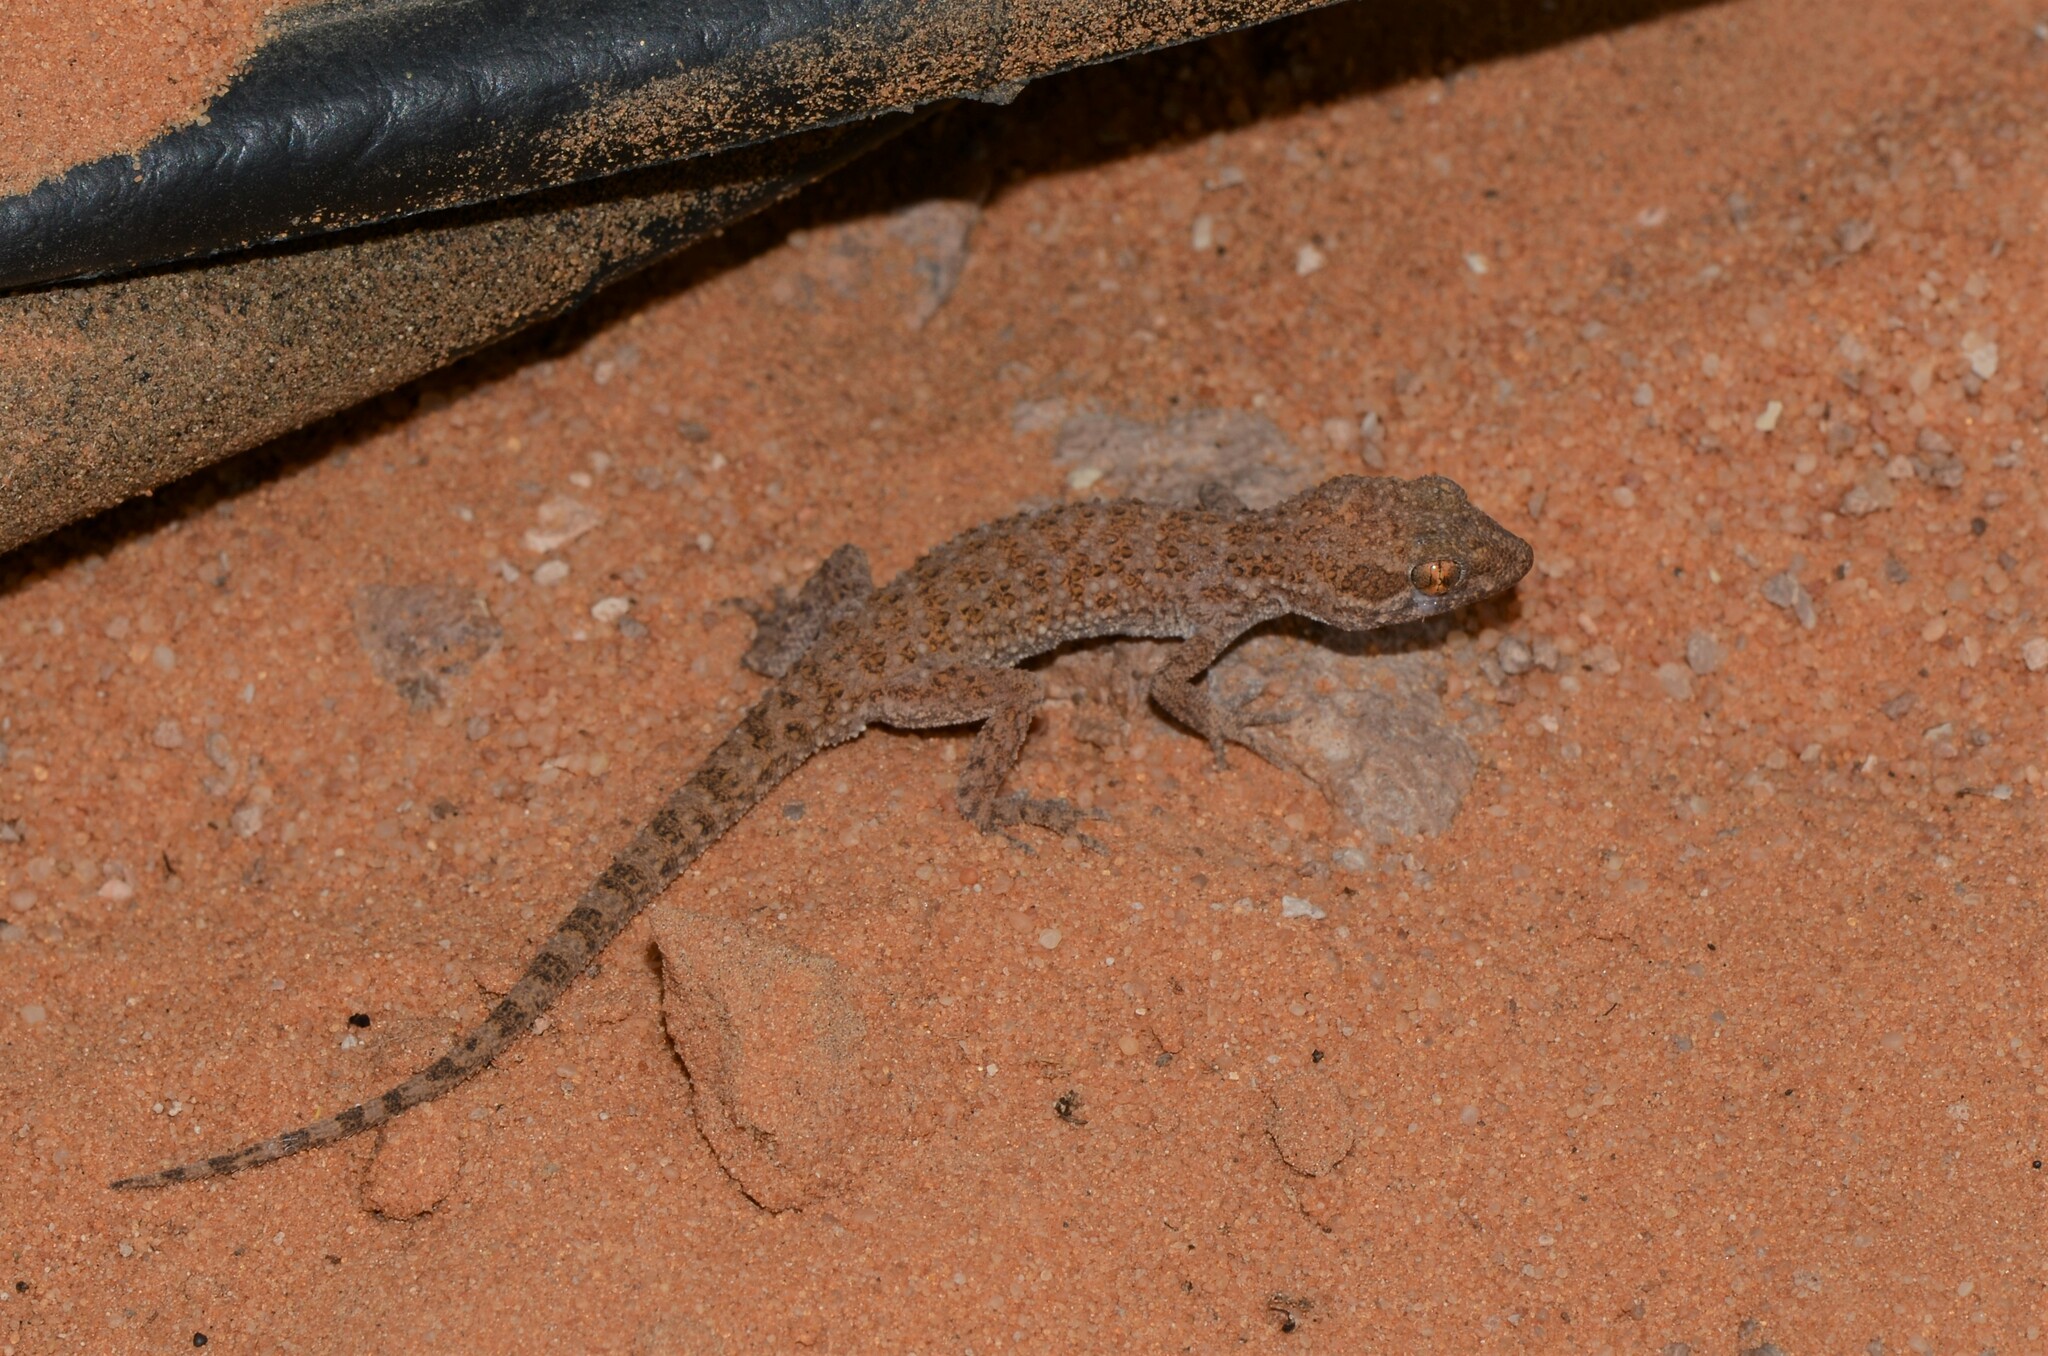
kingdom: Animalia
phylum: Chordata
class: Squamata
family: Gekkonidae
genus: Bunopus
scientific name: Bunopus tuberculatus
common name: Southern tuberculated gecko
